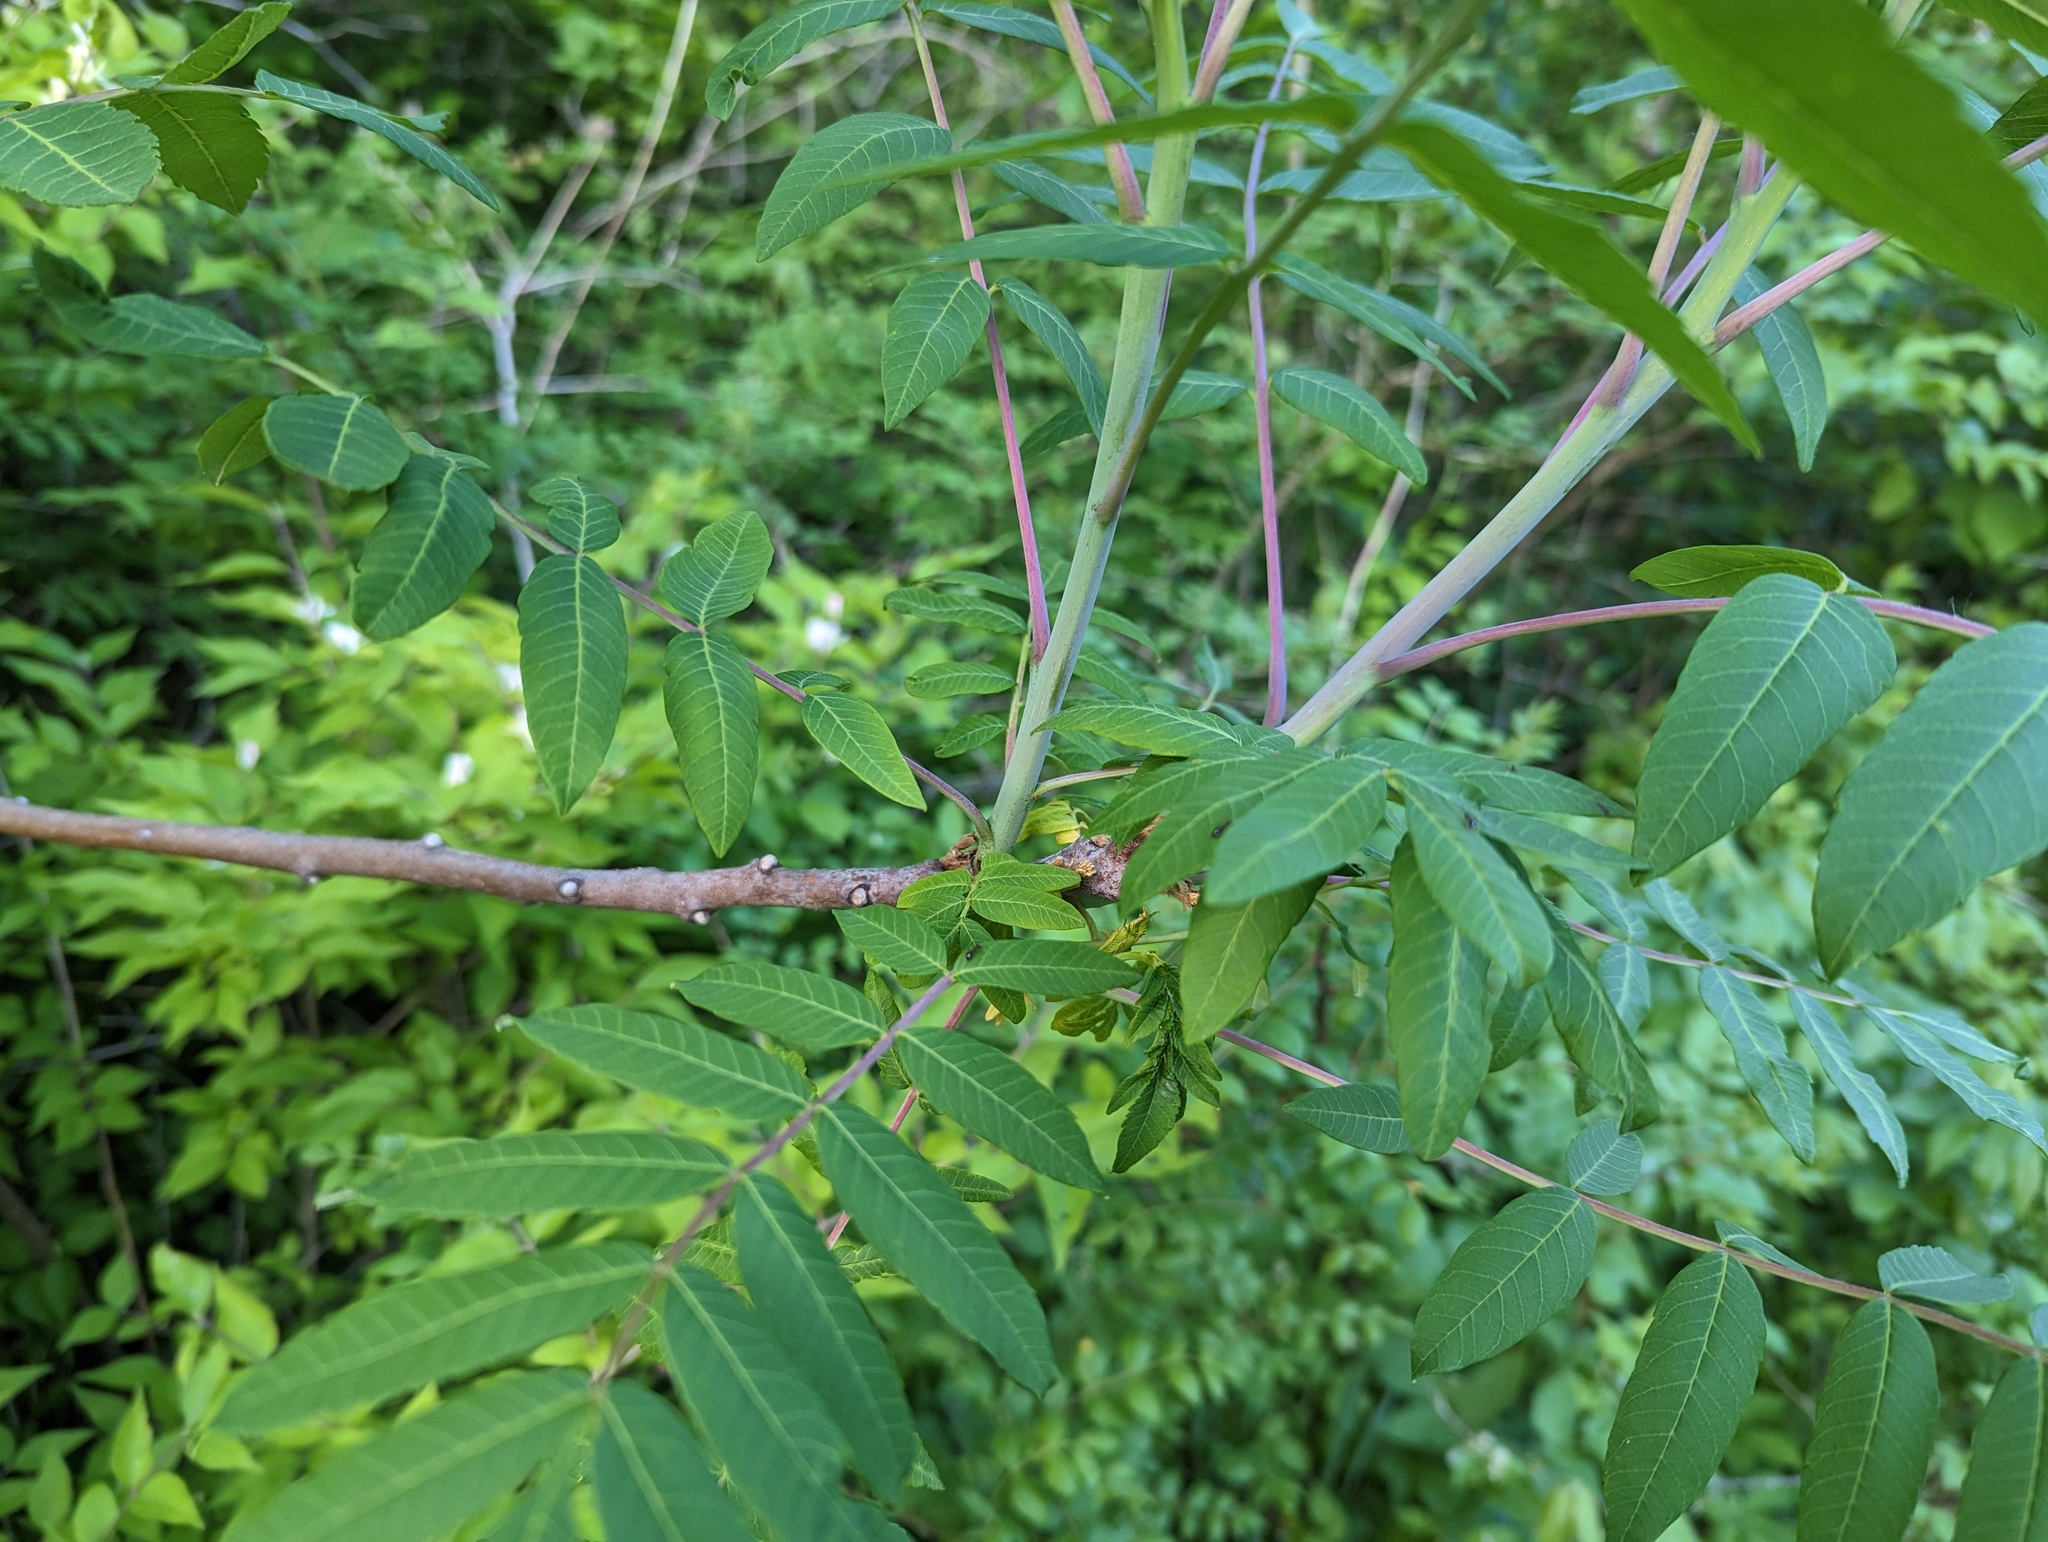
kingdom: Plantae
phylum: Tracheophyta
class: Magnoliopsida
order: Sapindales
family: Anacardiaceae
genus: Rhus
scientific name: Rhus glabra
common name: Scarlet sumac
